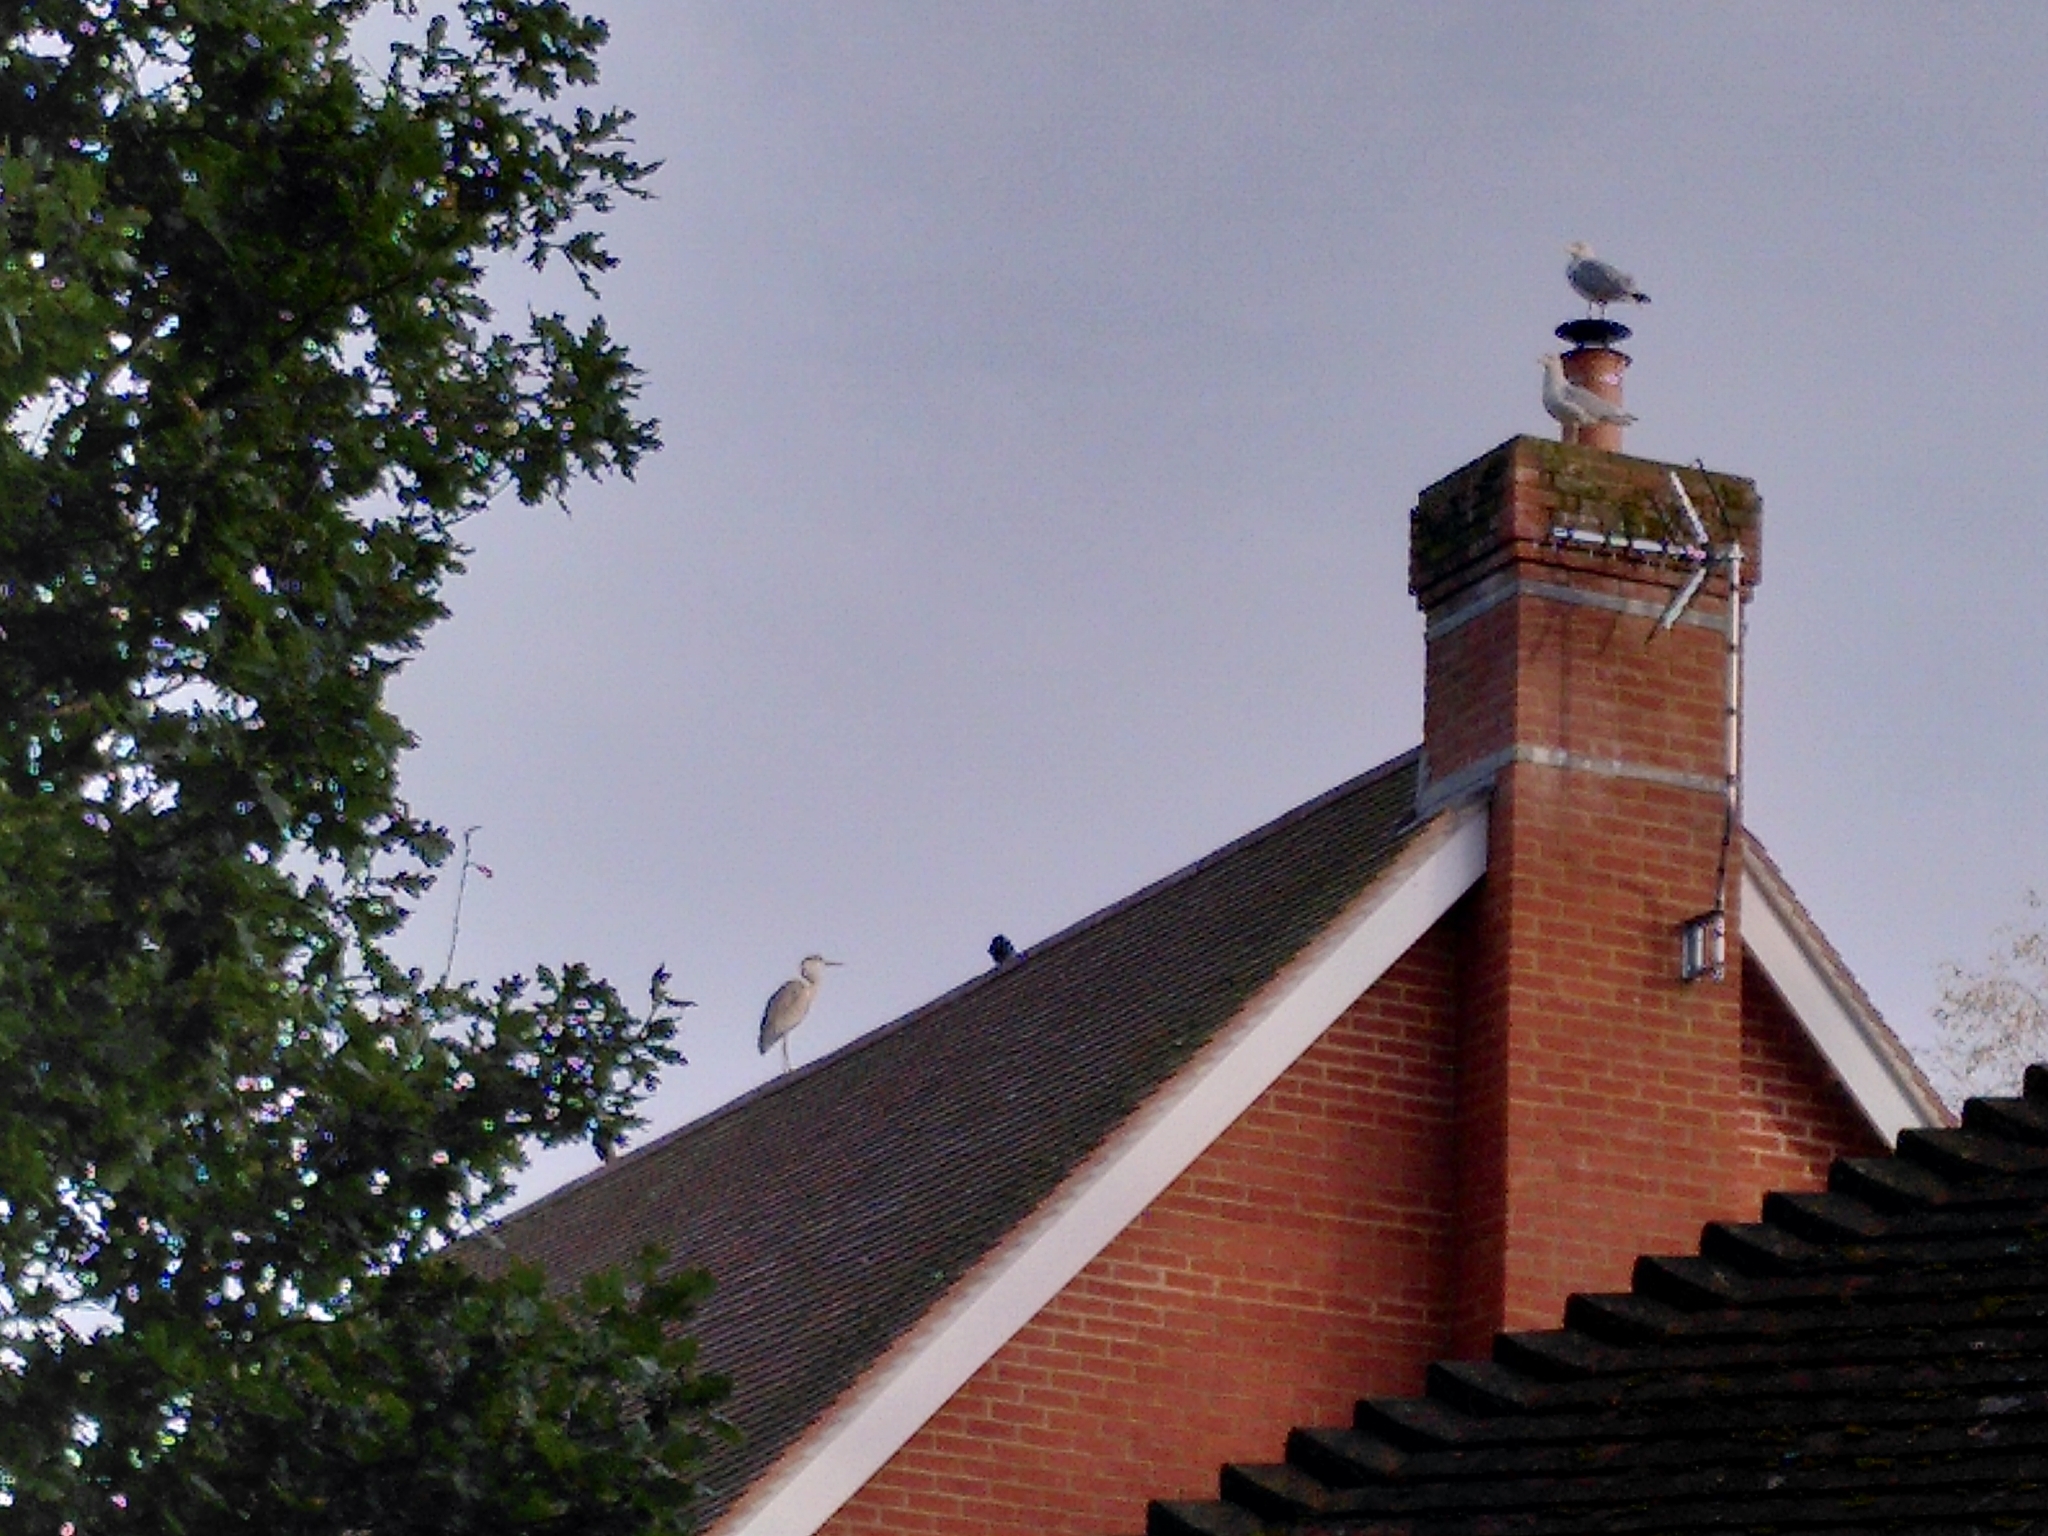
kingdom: Animalia
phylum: Chordata
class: Aves
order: Pelecaniformes
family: Ardeidae
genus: Ardea
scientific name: Ardea cinerea
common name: Grey heron
